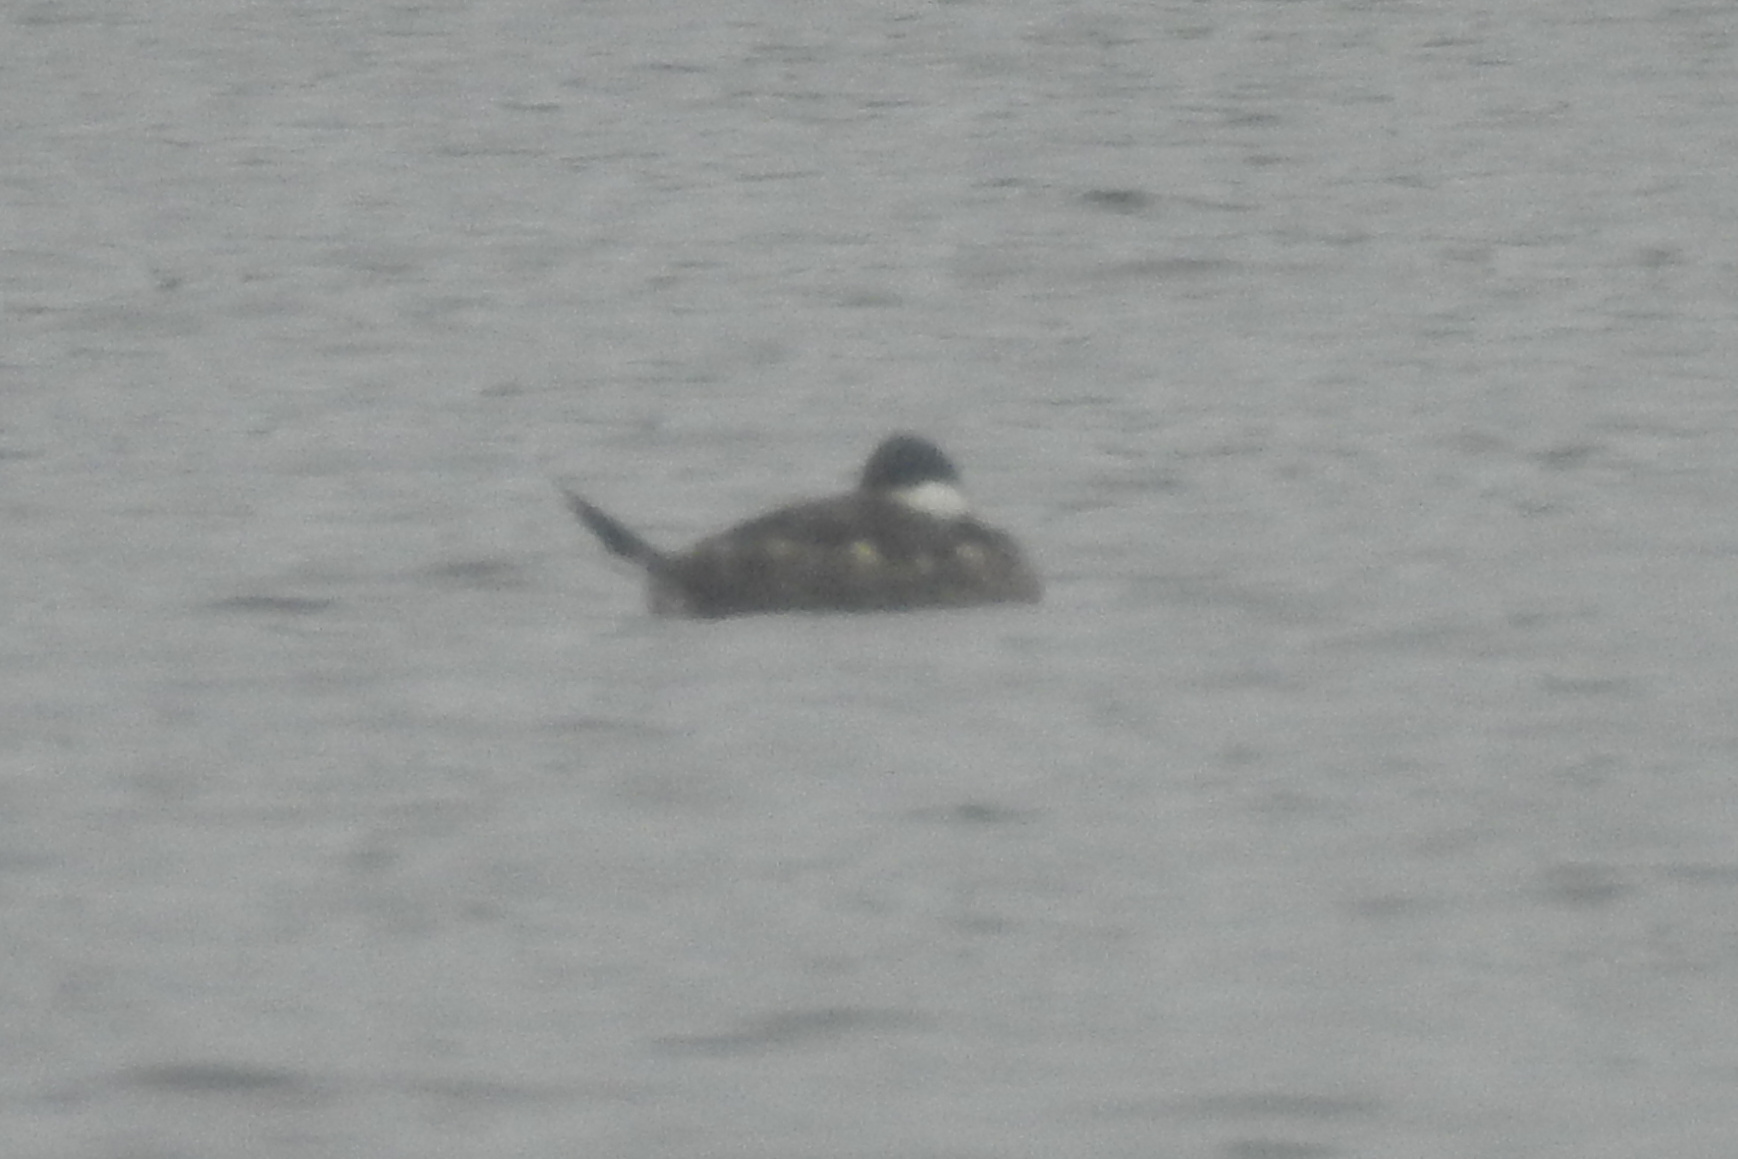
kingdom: Animalia
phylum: Chordata
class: Aves
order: Anseriformes
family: Anatidae
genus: Oxyura
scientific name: Oxyura jamaicensis
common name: Ruddy duck
